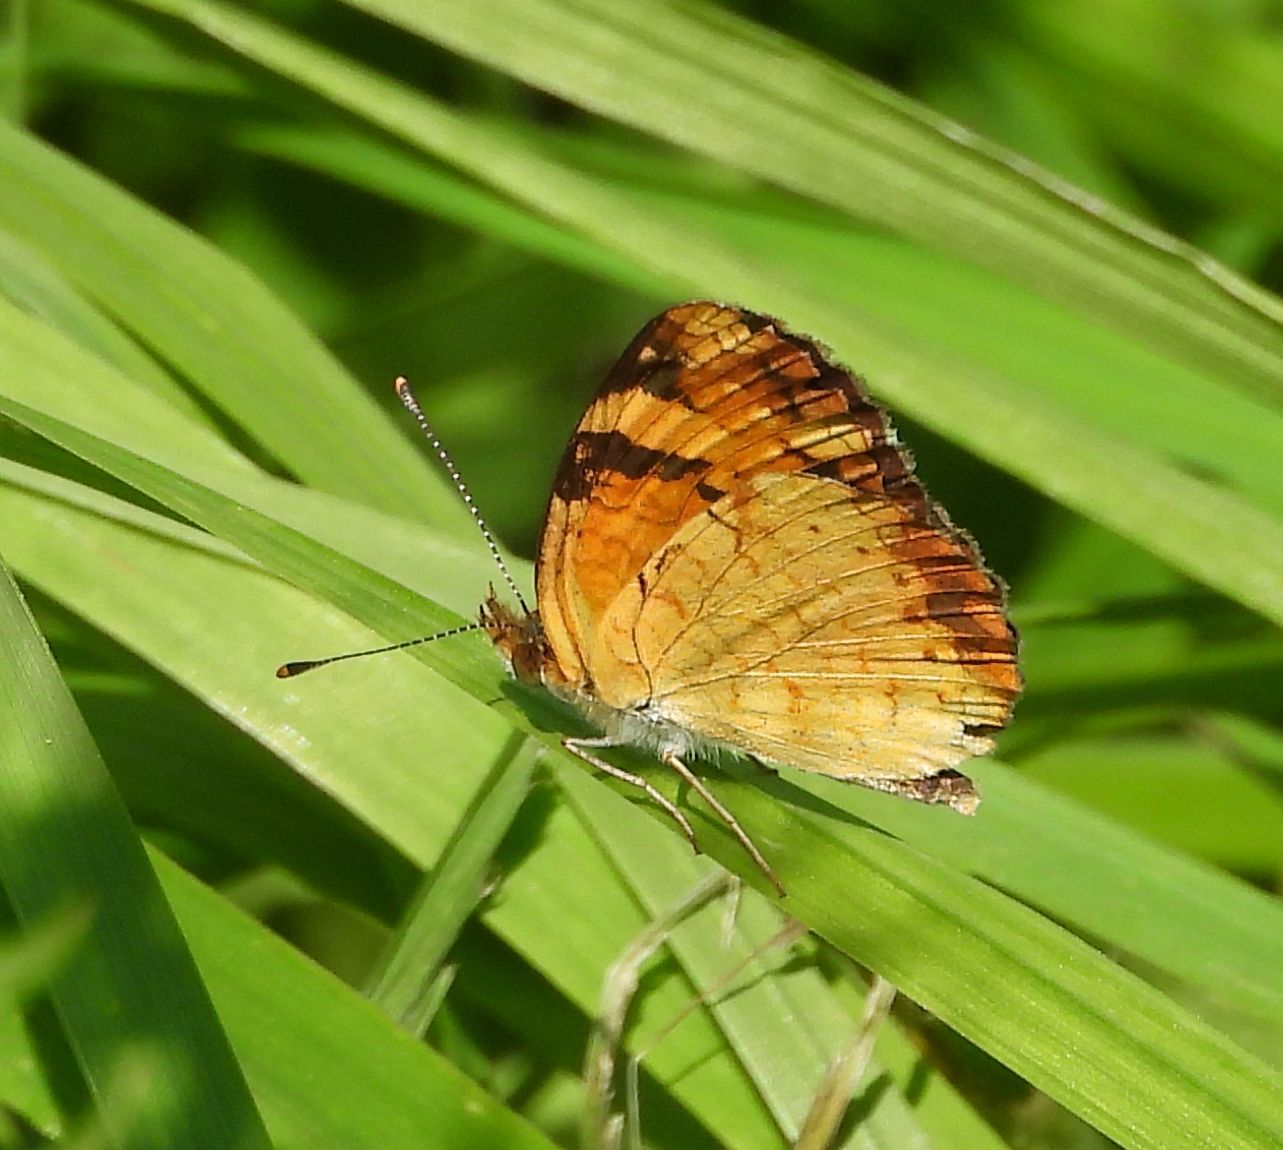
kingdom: Animalia
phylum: Arthropoda
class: Insecta
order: Lepidoptera
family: Nymphalidae
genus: Phyciodes
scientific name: Phyciodes tharos
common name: Pearl crescent
